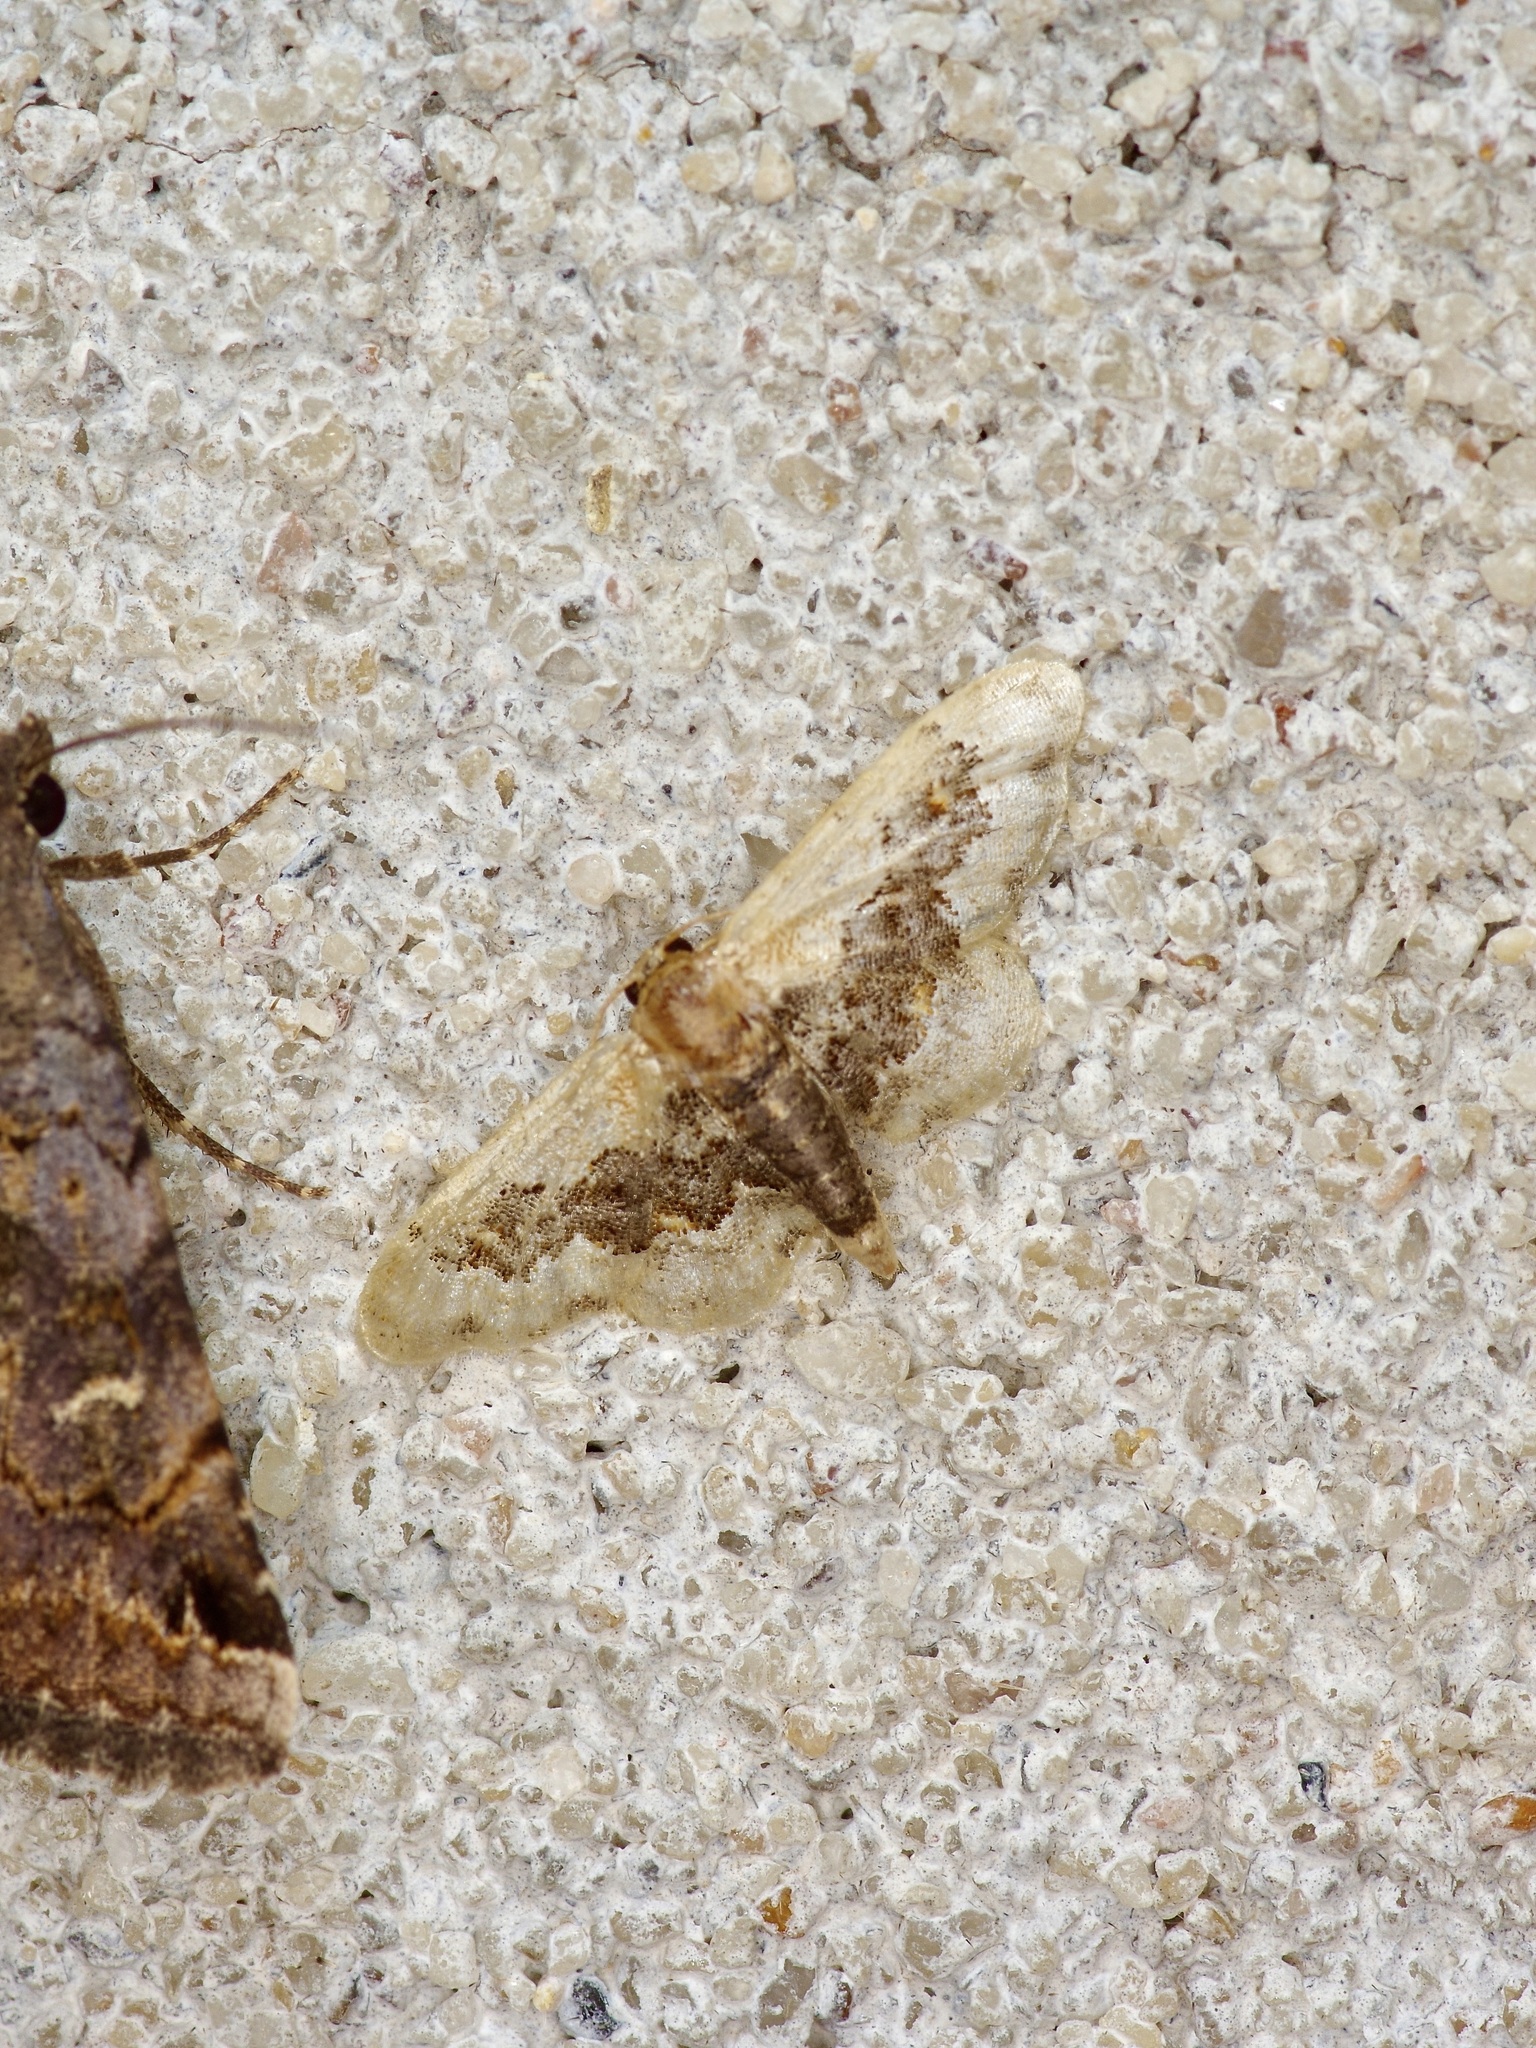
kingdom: Animalia
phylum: Arthropoda
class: Insecta
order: Lepidoptera
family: Geometridae
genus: Idaea
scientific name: Idaea gemmata
